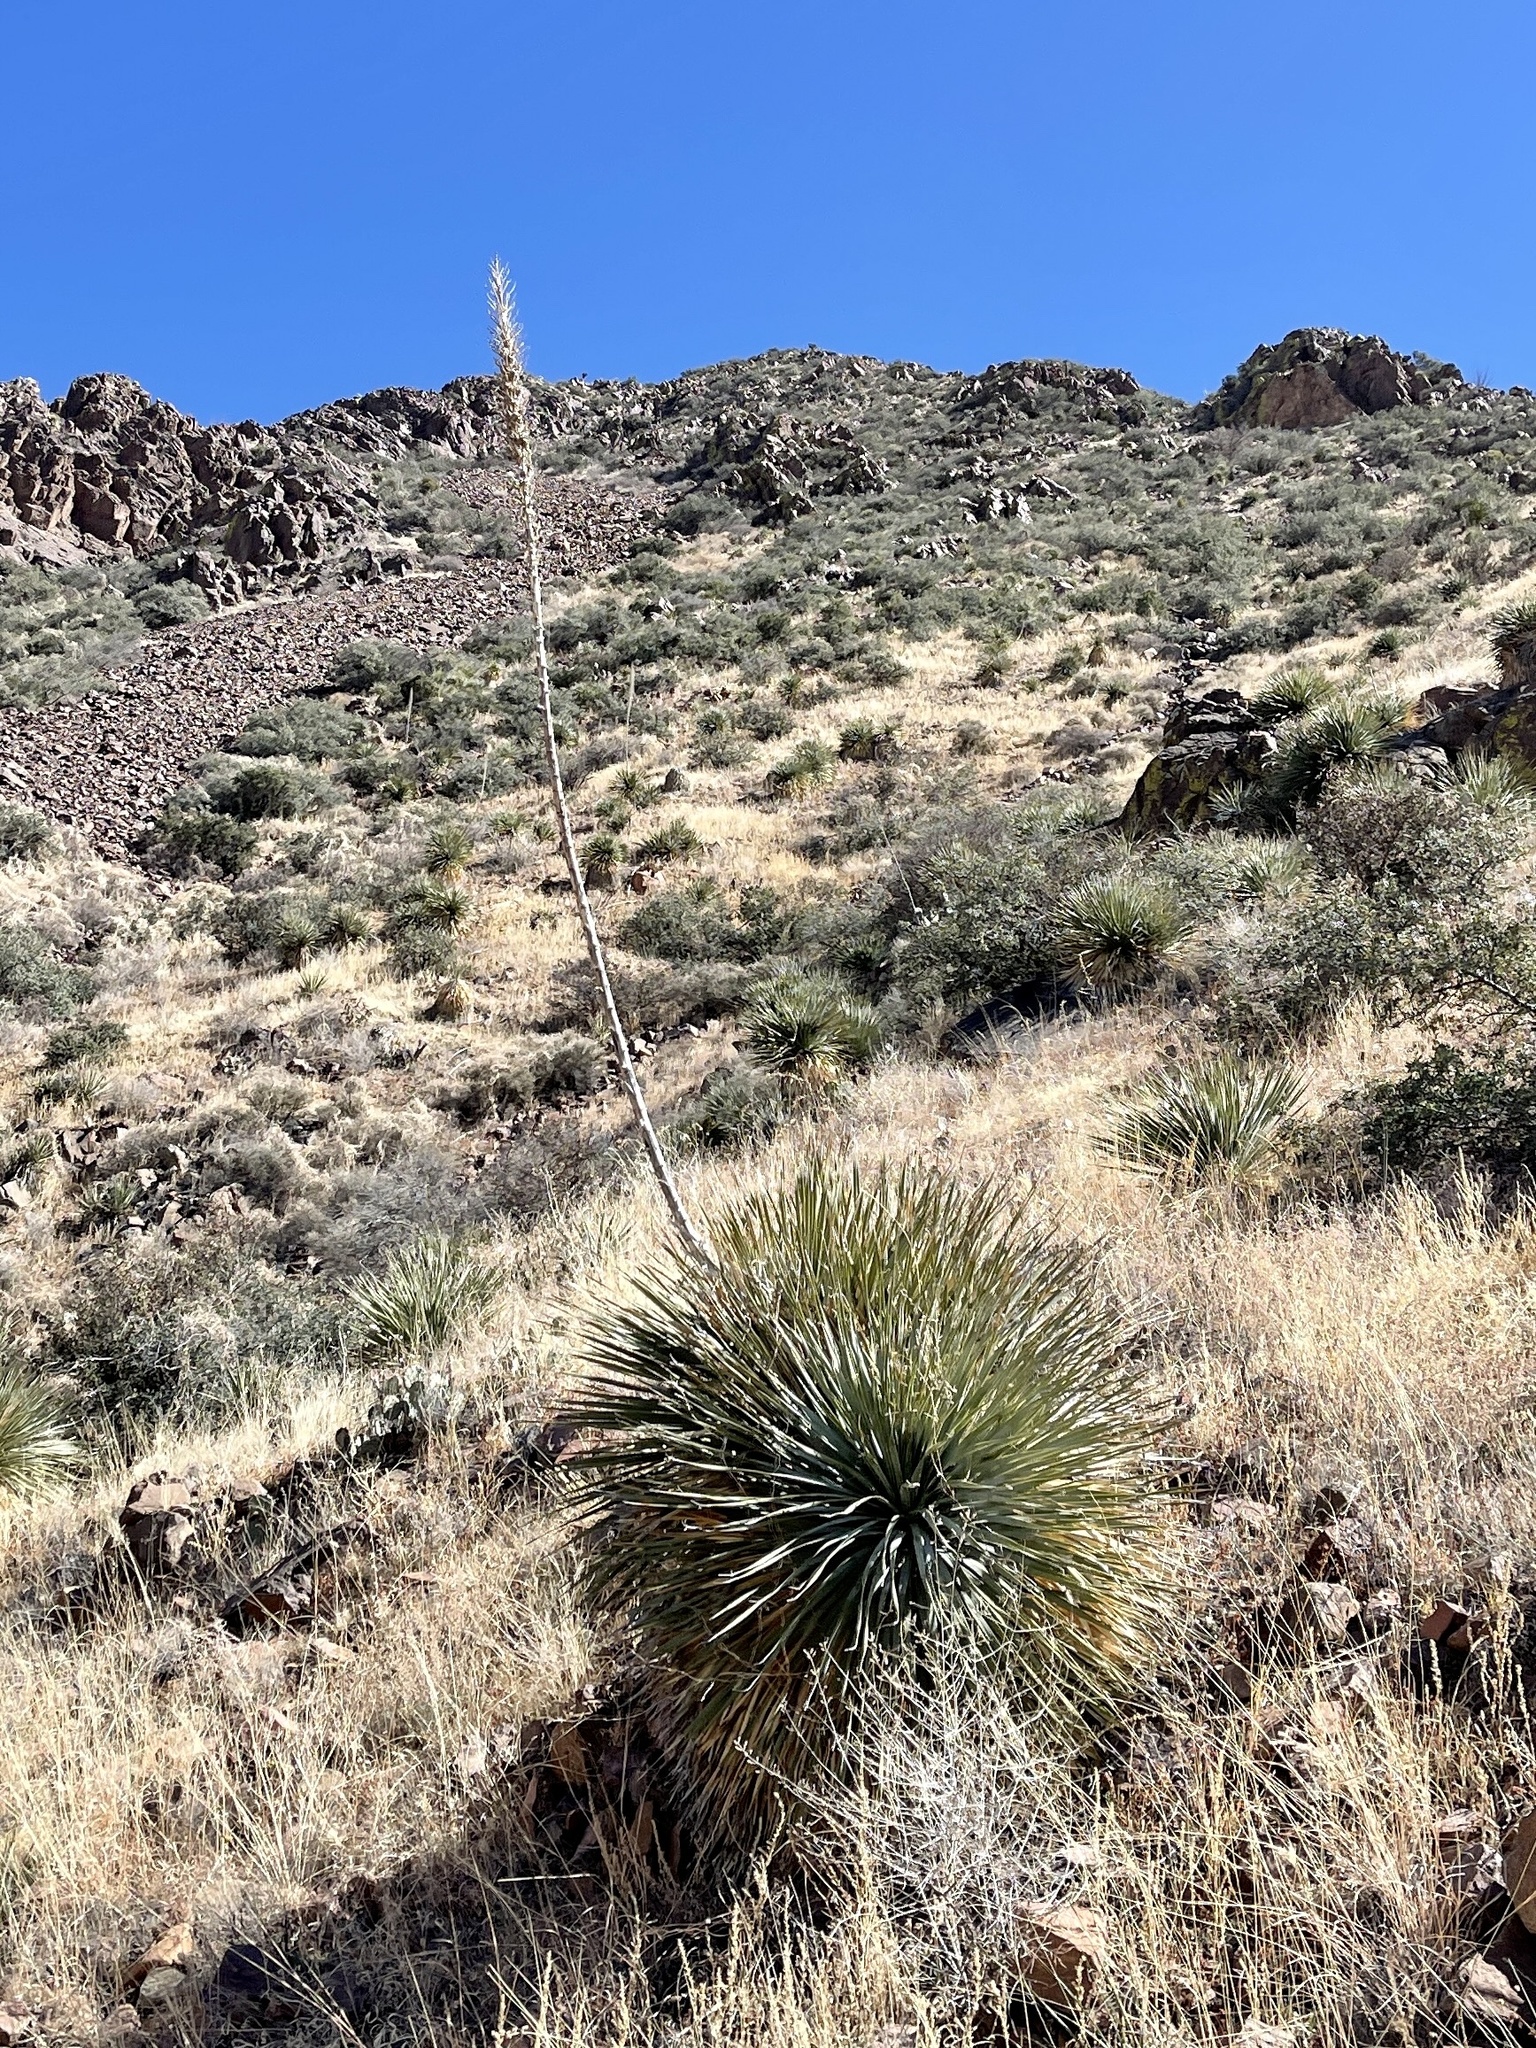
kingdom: Plantae
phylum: Tracheophyta
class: Liliopsida
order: Asparagales
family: Asparagaceae
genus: Dasylirion
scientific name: Dasylirion wheeleri
